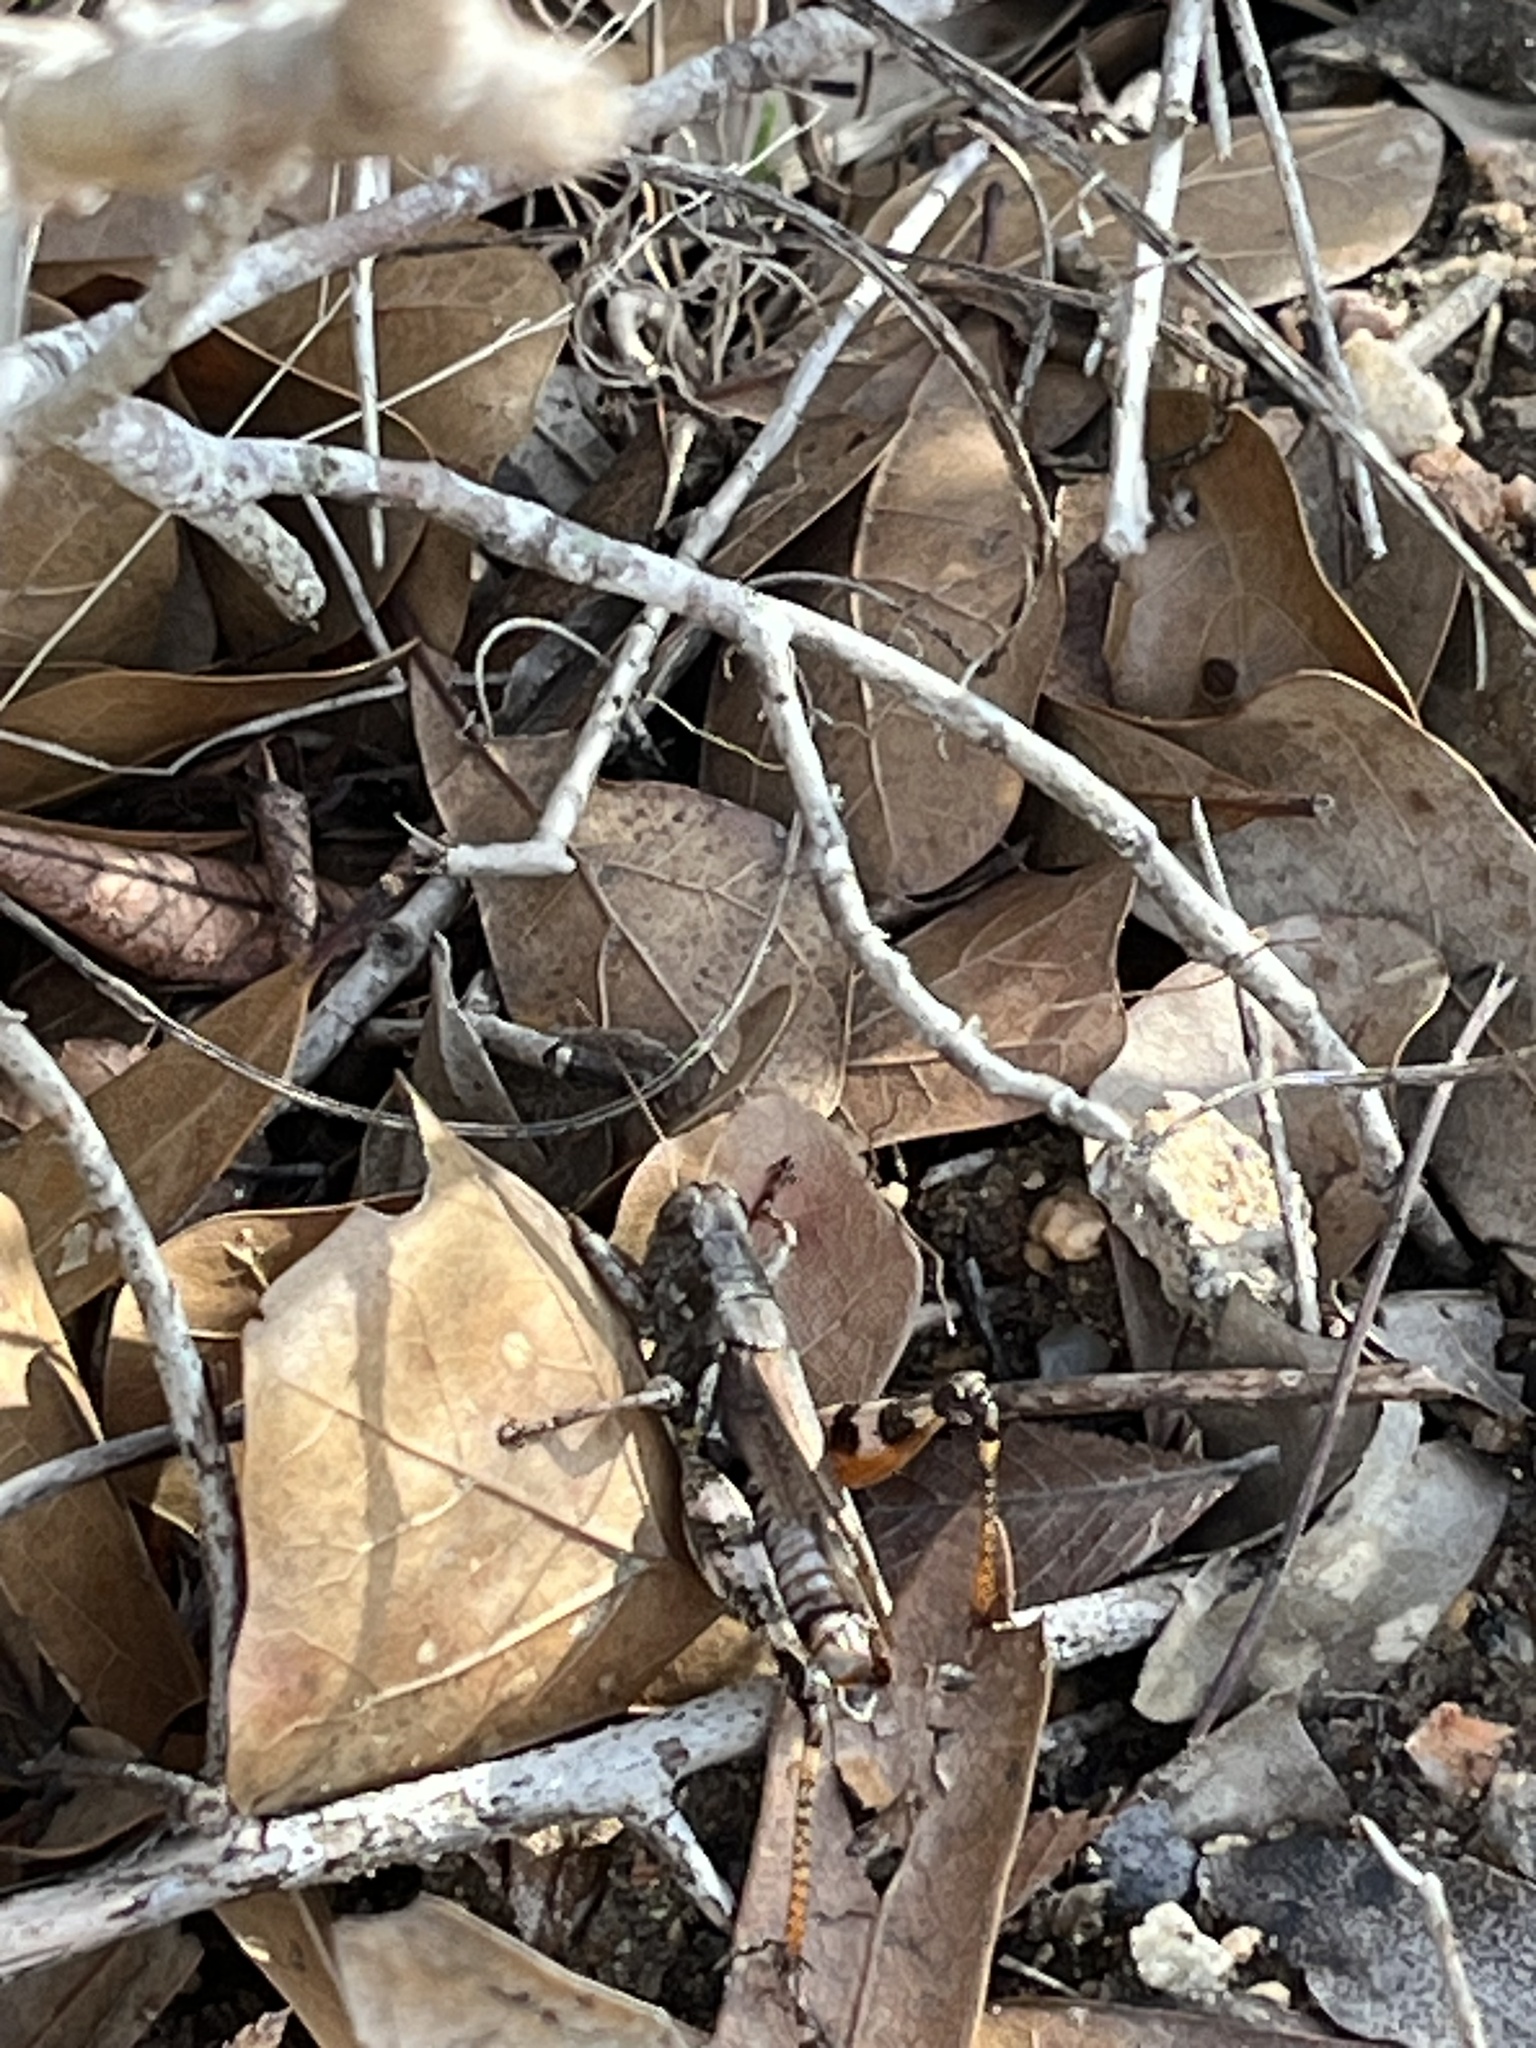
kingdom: Animalia
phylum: Arthropoda
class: Insecta
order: Orthoptera
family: Acrididae
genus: Melanoplus
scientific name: Melanoplus ponderosus
